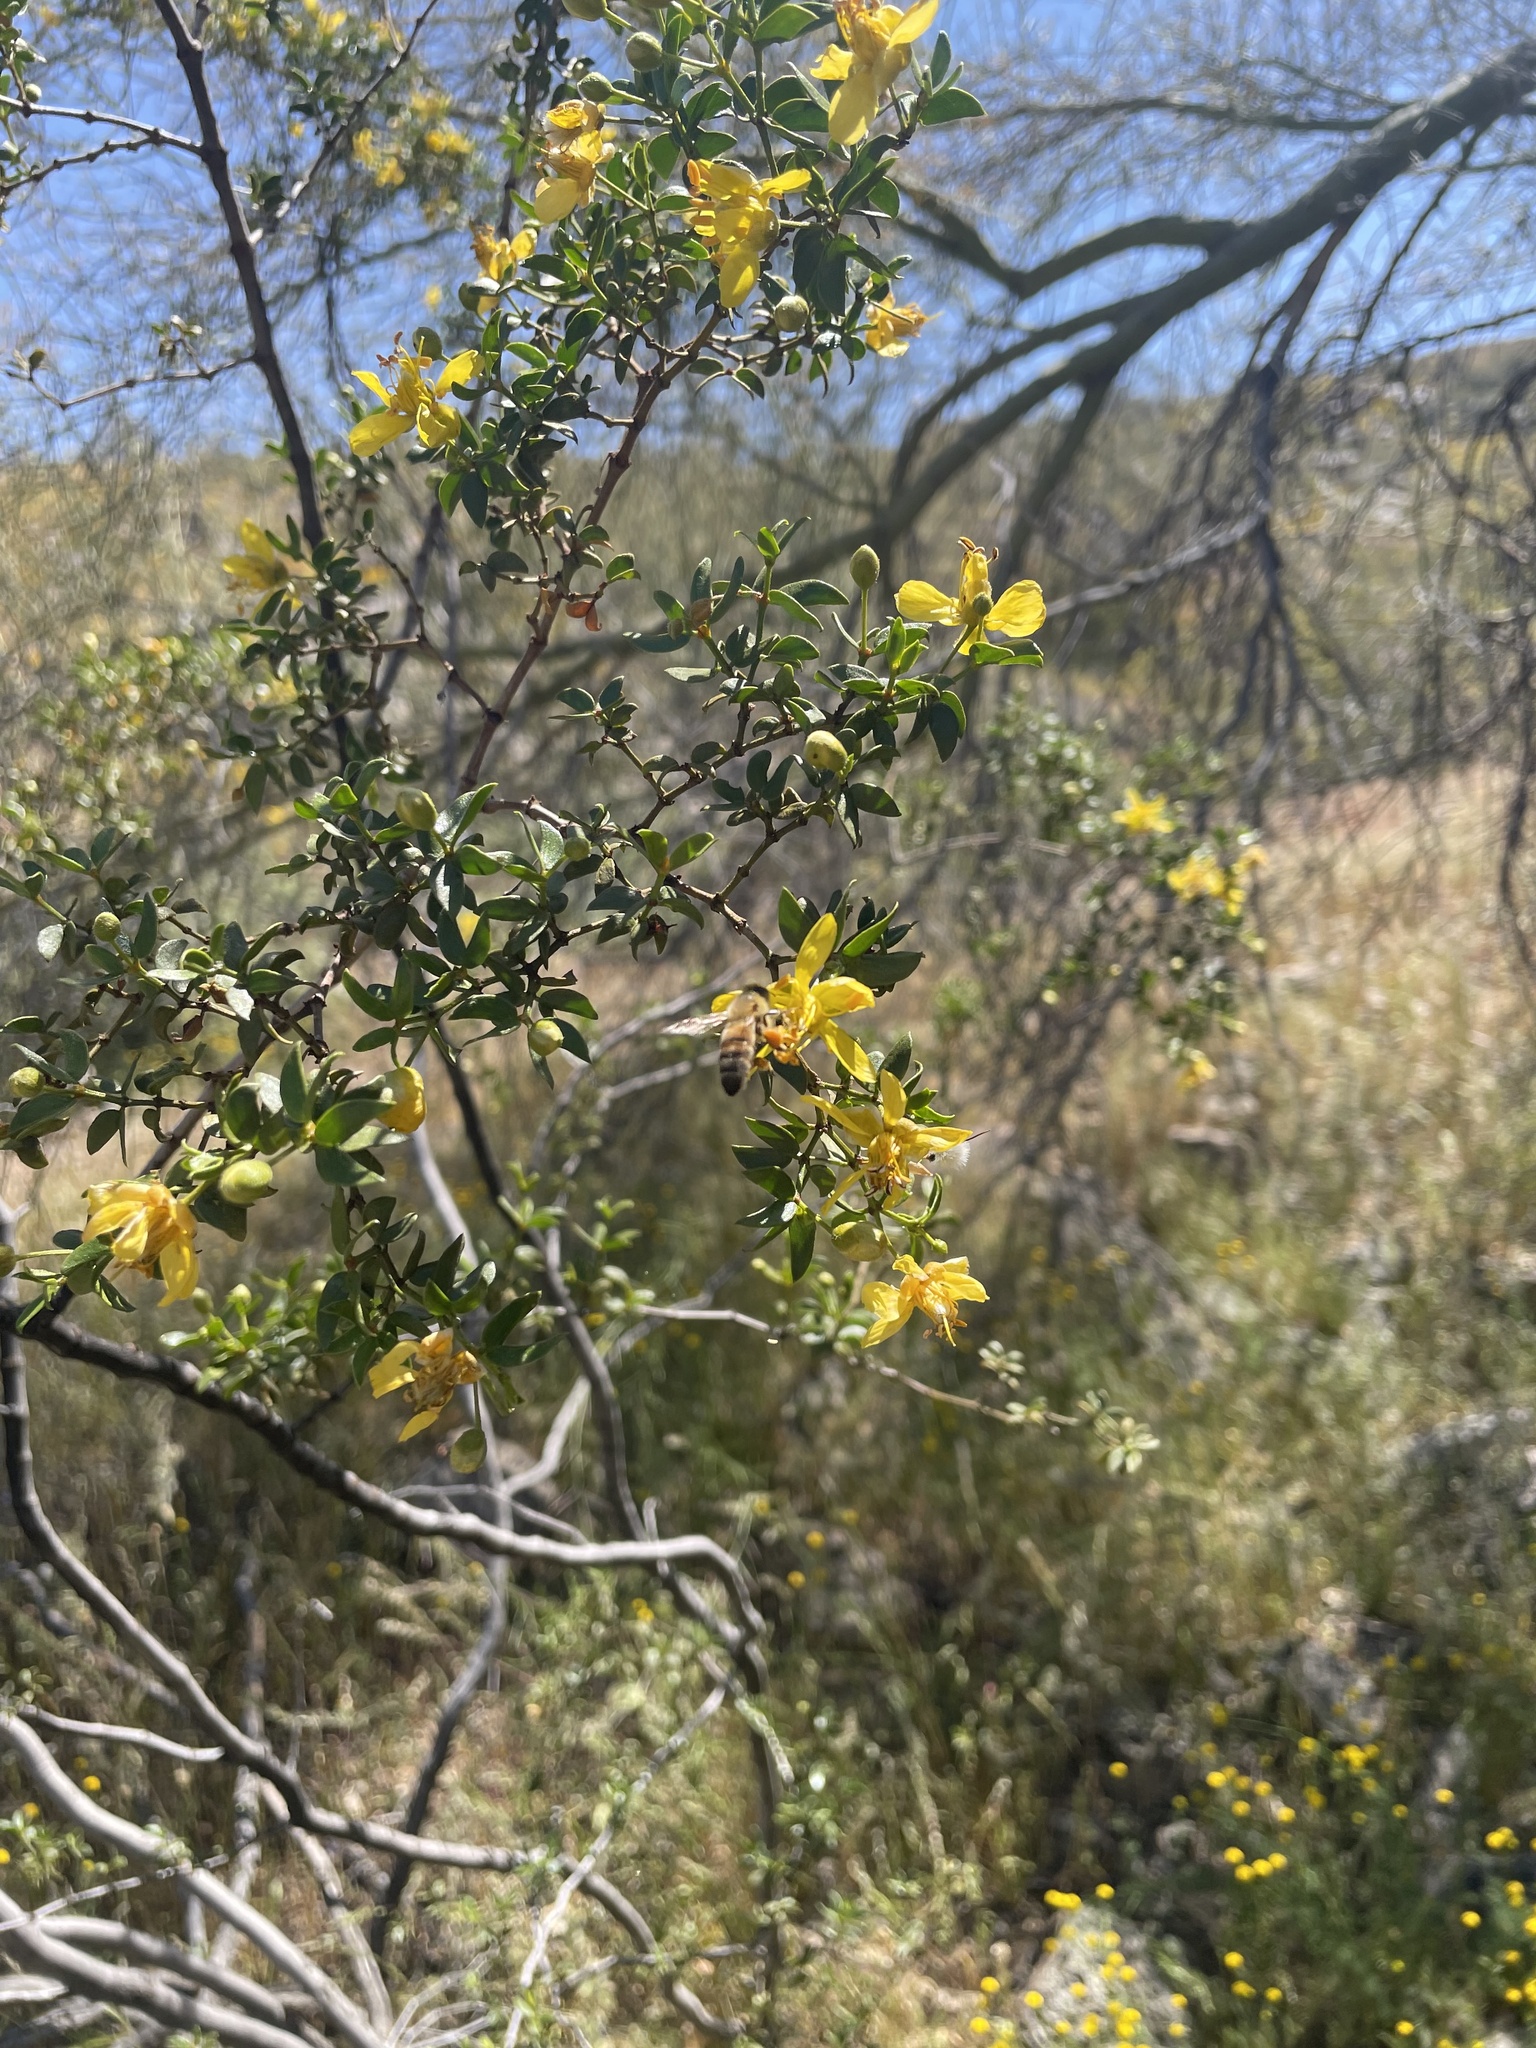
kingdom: Animalia
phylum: Arthropoda
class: Insecta
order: Hymenoptera
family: Apidae
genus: Apis
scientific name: Apis mellifera
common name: Honey bee
